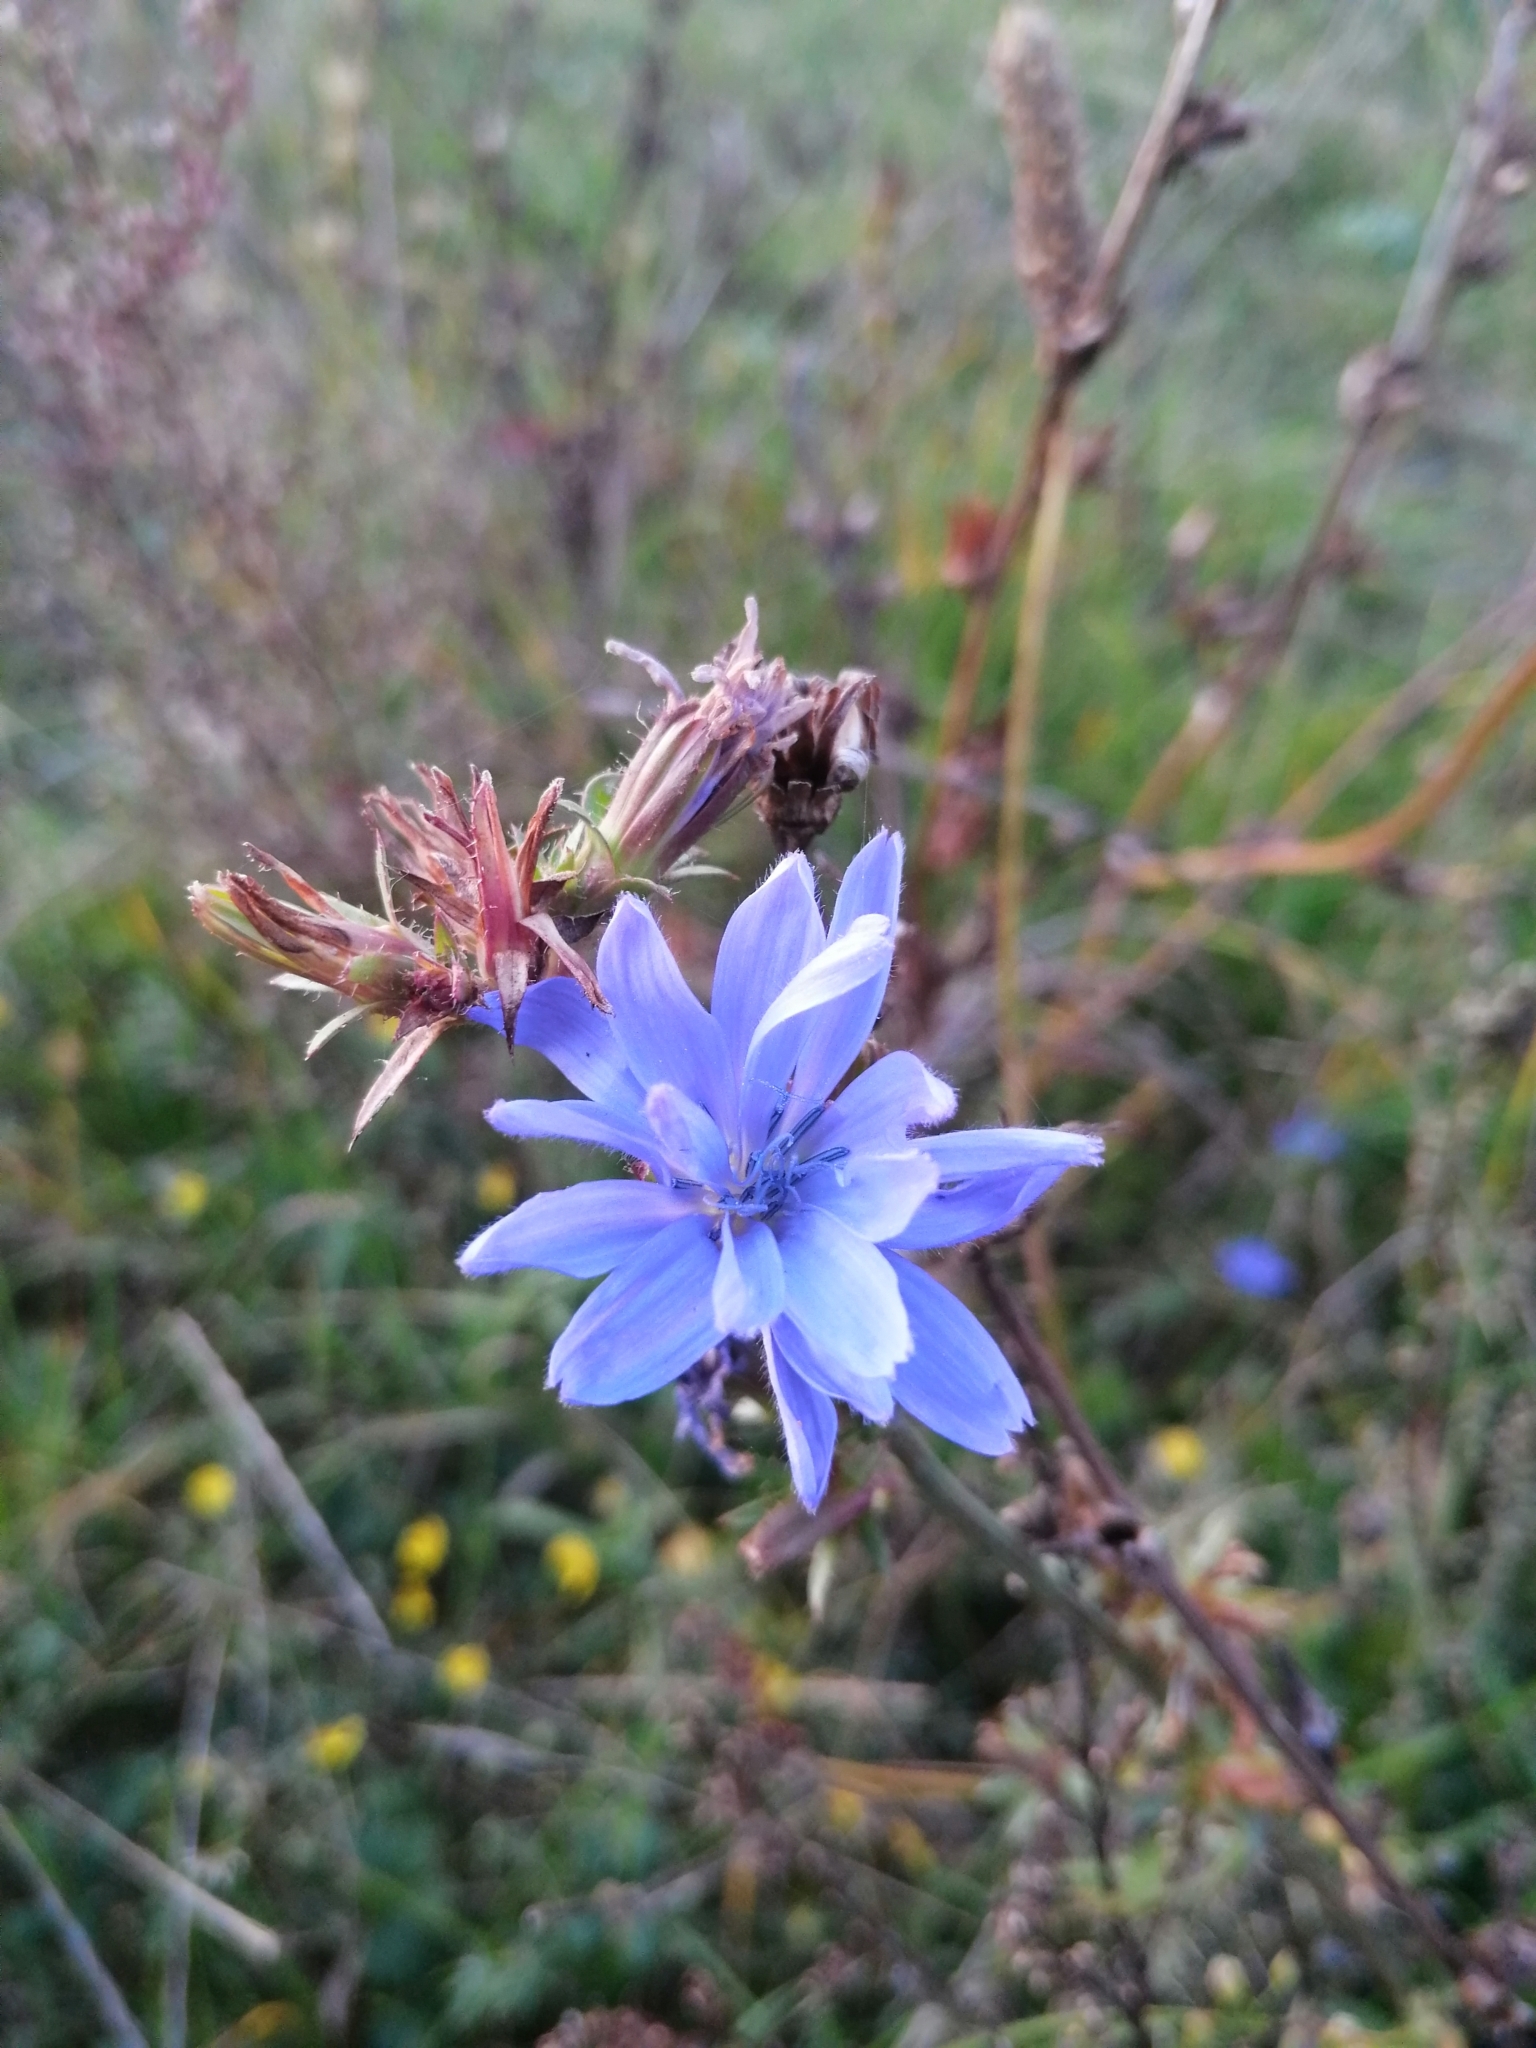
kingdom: Plantae
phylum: Tracheophyta
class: Magnoliopsida
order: Asterales
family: Asteraceae
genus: Cichorium
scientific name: Cichorium intybus
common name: Chicory
